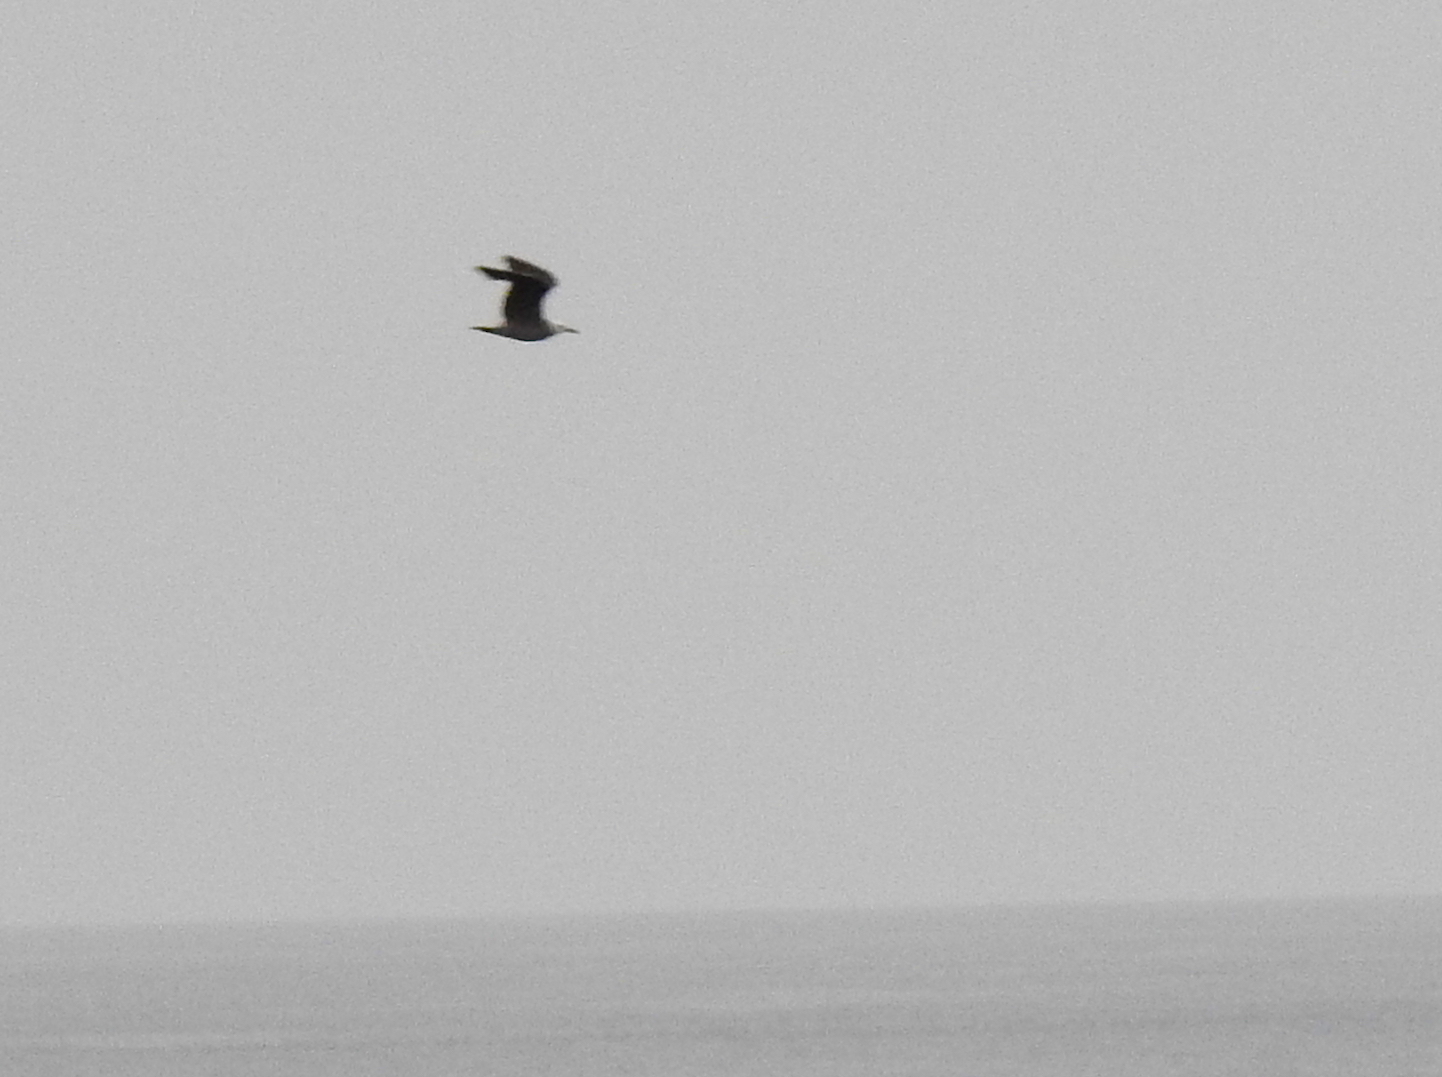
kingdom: Animalia
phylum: Chordata
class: Aves
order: Charadriiformes
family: Laridae
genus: Larus
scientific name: Larus heermanni
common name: Heermann's gull
